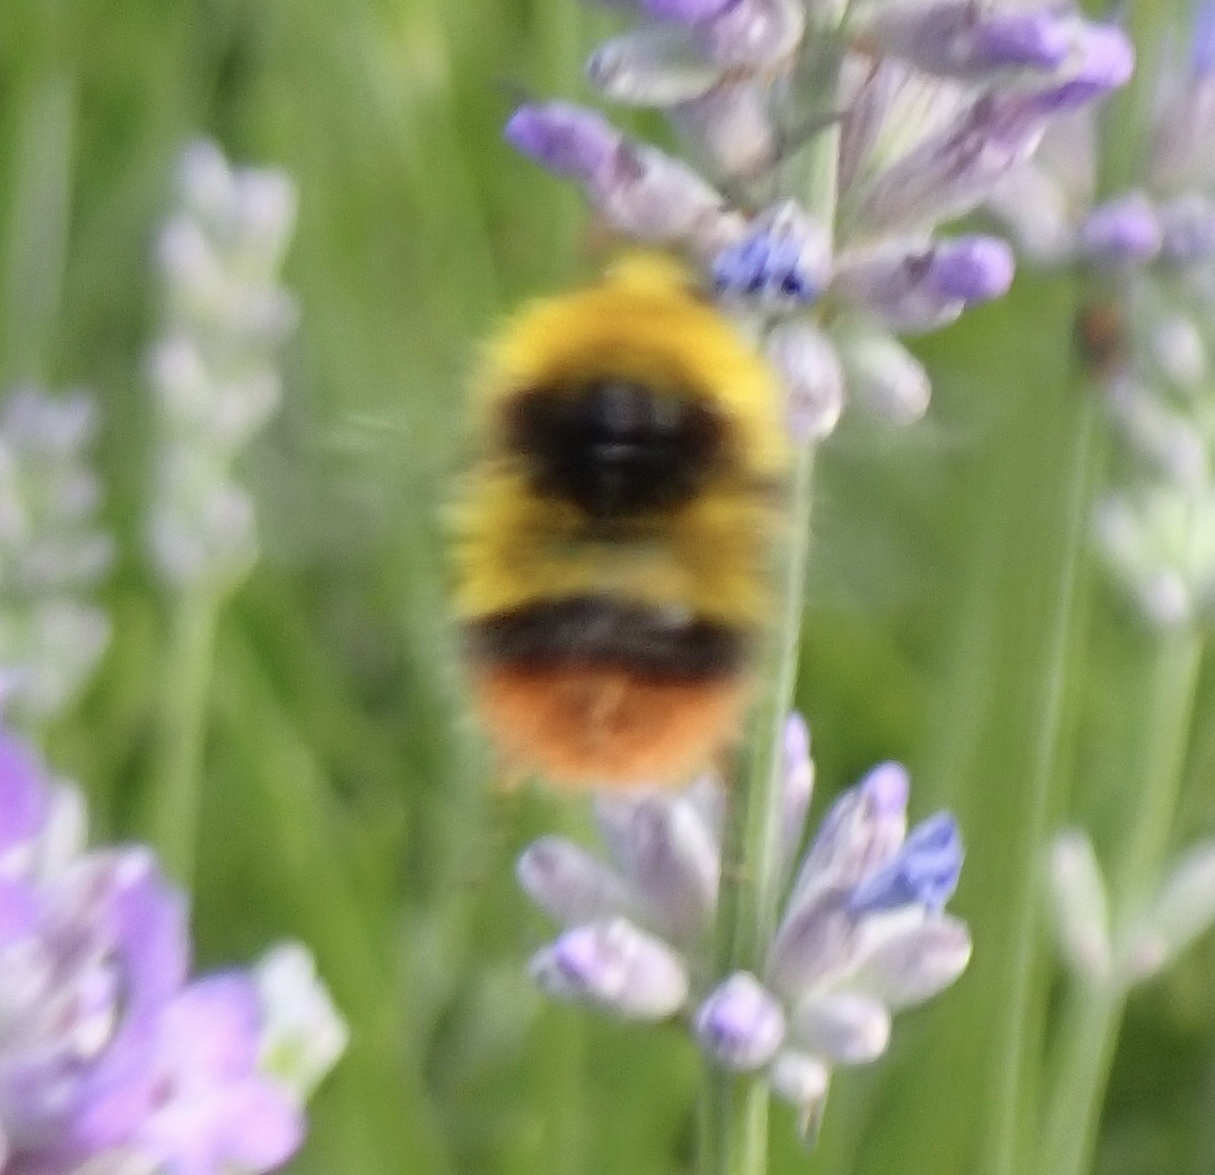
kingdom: Animalia
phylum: Arthropoda
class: Insecta
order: Hymenoptera
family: Apidae
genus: Bombus
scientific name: Bombus pratorum
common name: Early humble-bee
